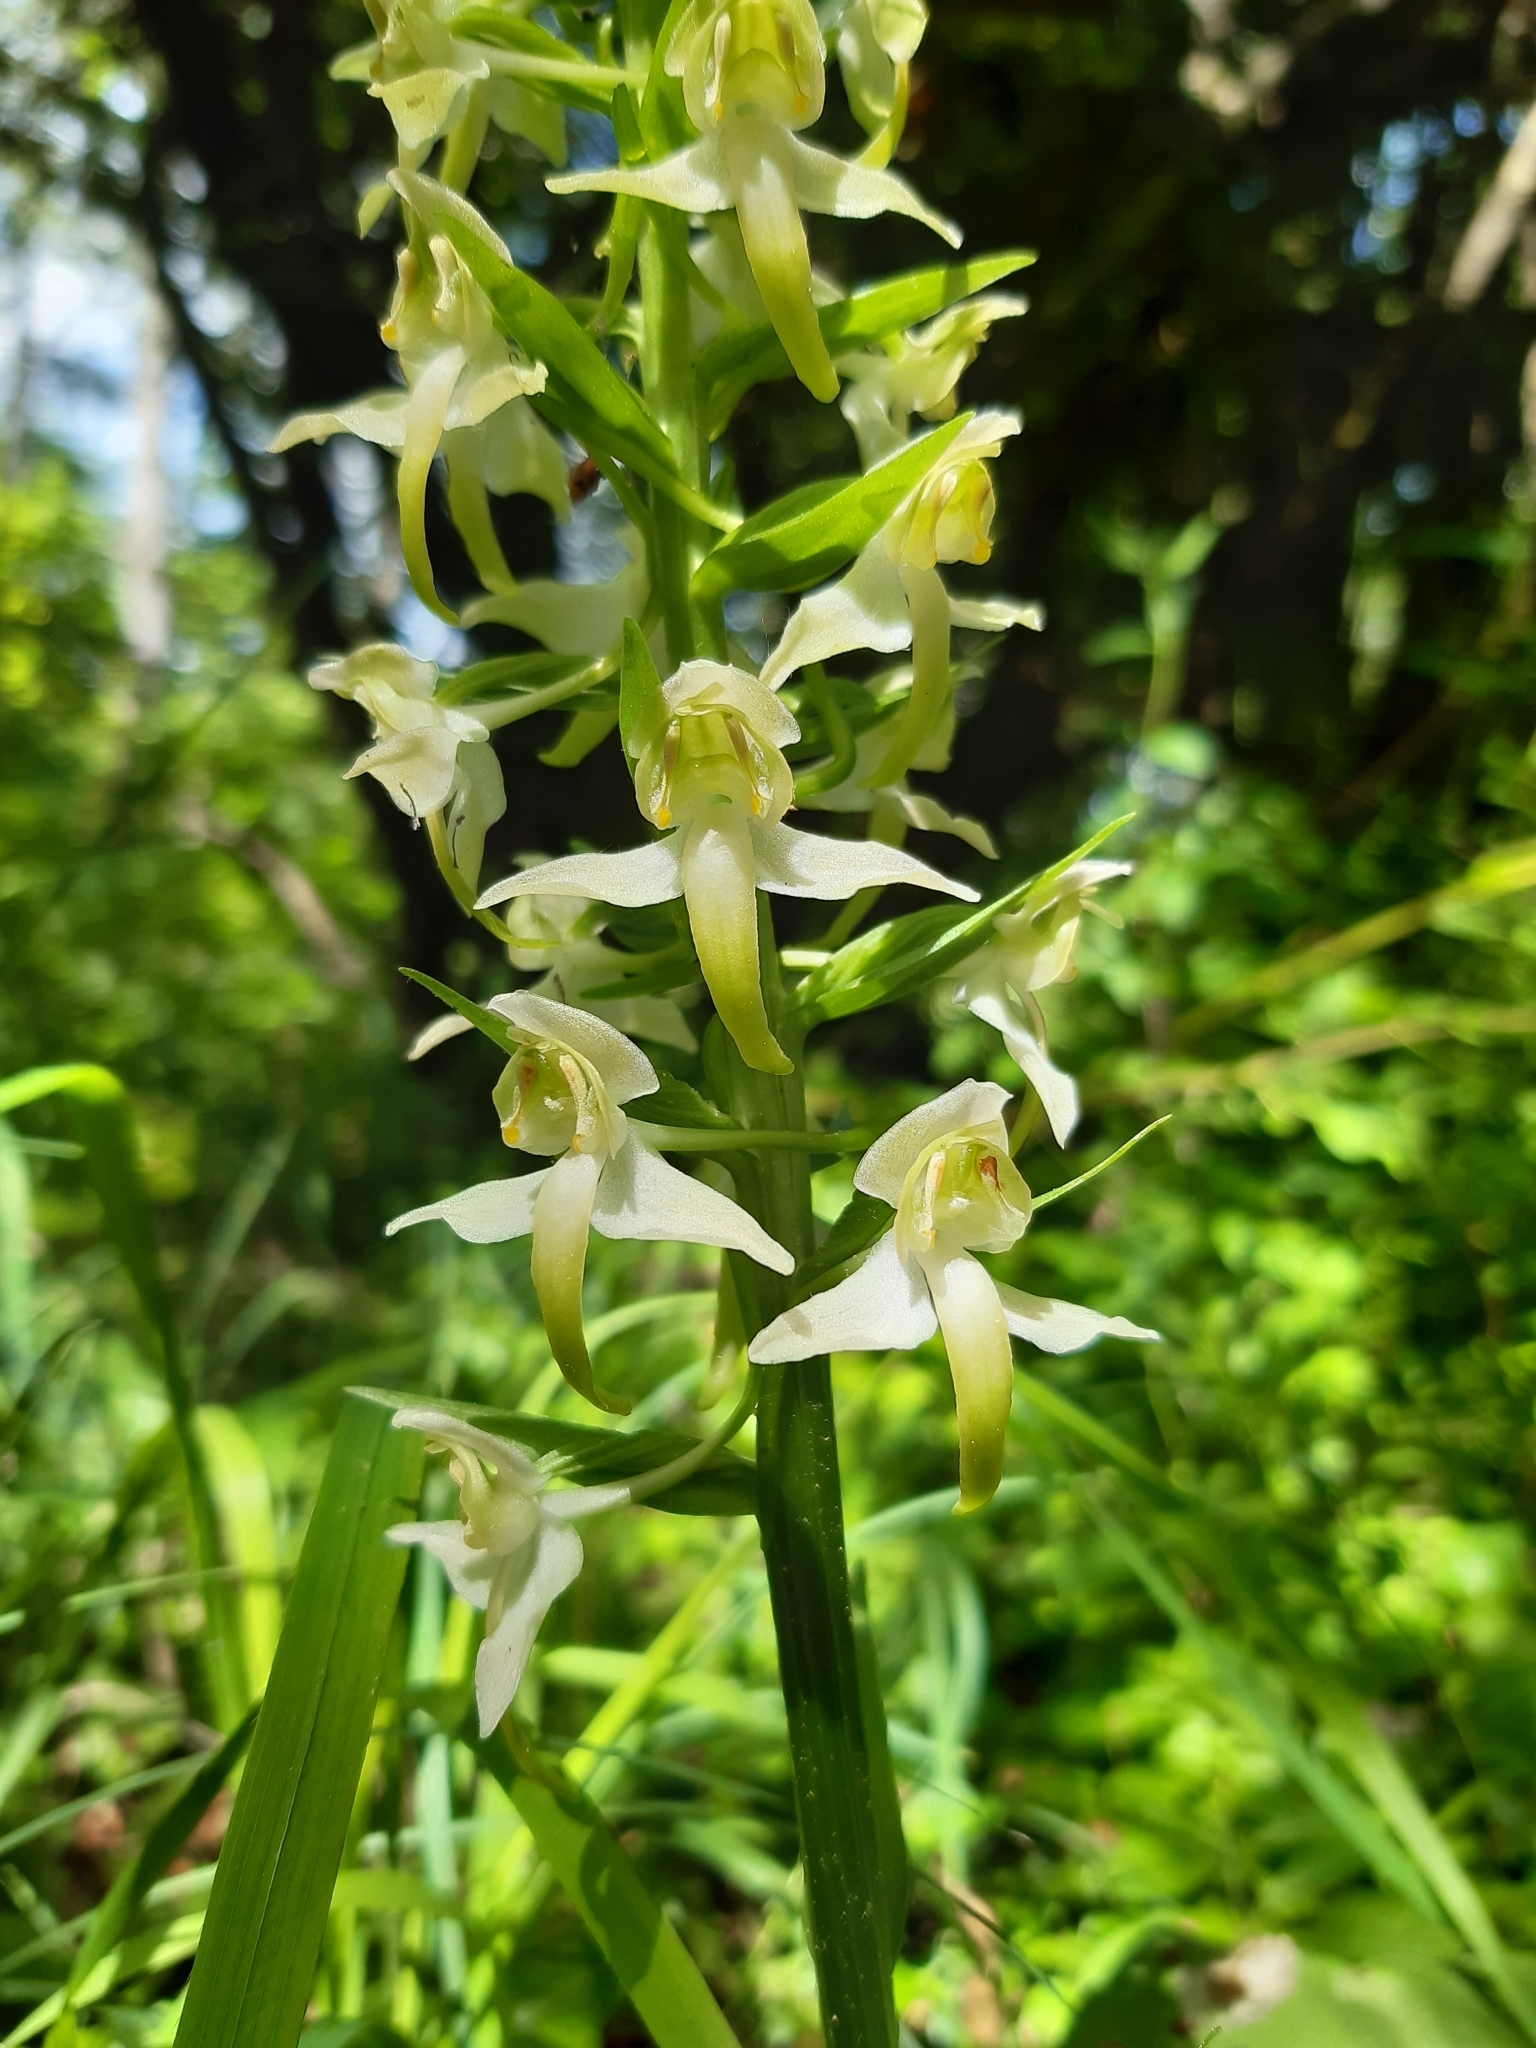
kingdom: Plantae
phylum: Tracheophyta
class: Liliopsida
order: Asparagales
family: Orchidaceae
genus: Platanthera
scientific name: Platanthera chlorantha
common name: Greater butterfly-orchid
